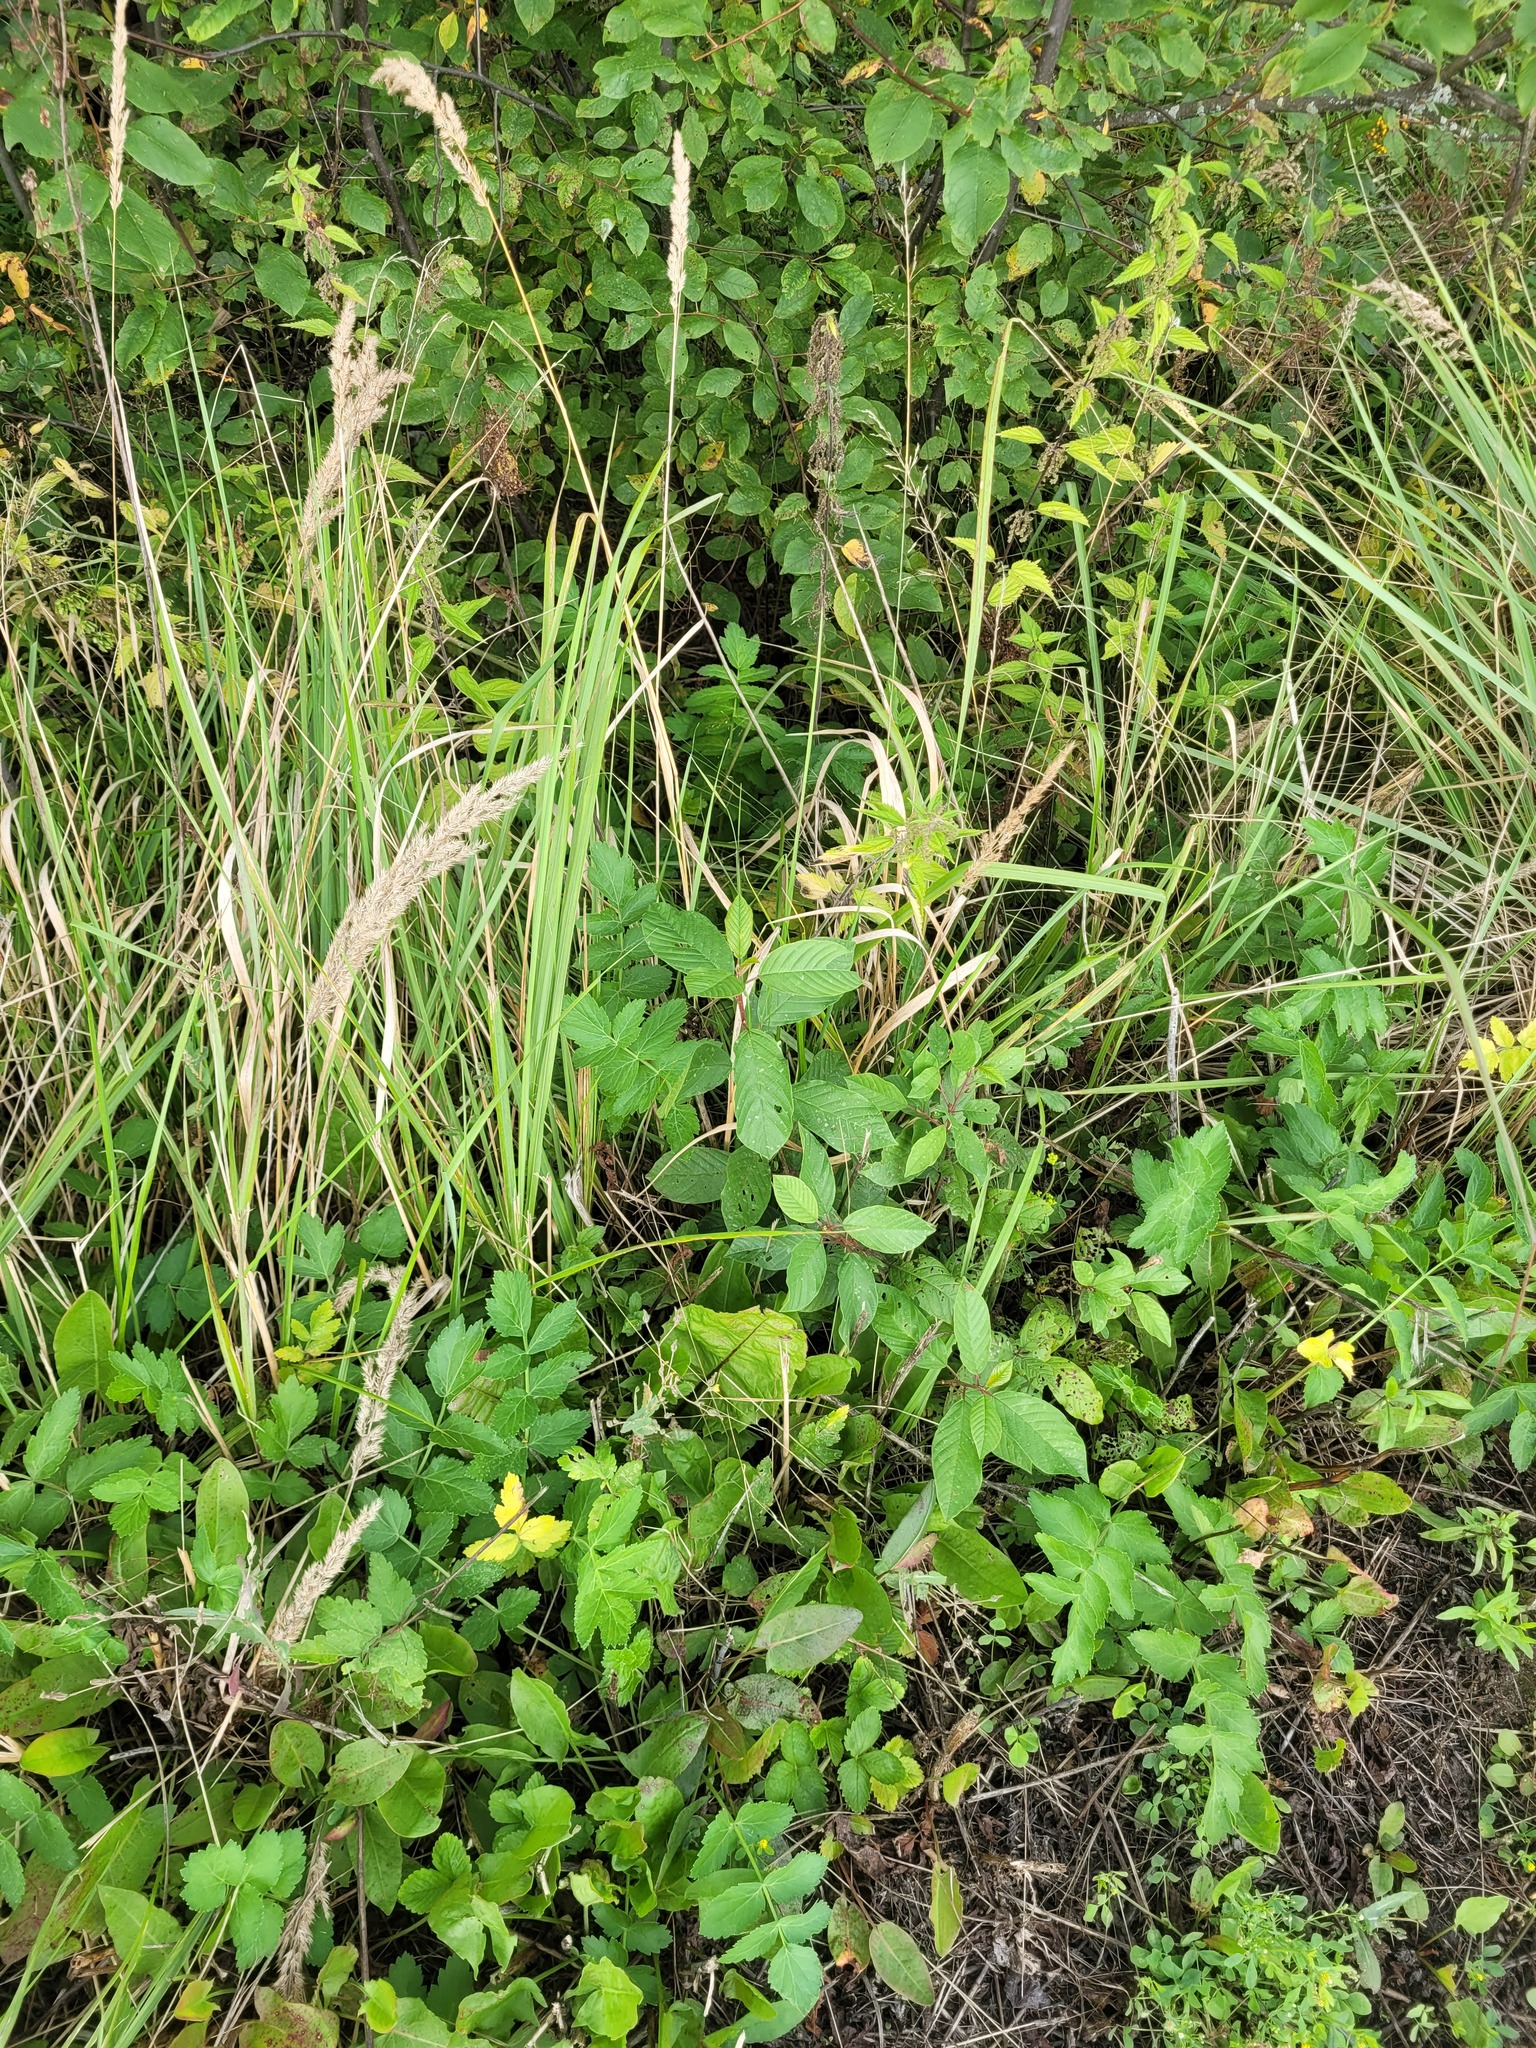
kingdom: Plantae
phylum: Tracheophyta
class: Magnoliopsida
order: Rosales
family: Rhamnaceae
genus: Frangula
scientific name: Frangula alnus
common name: Alder buckthorn
